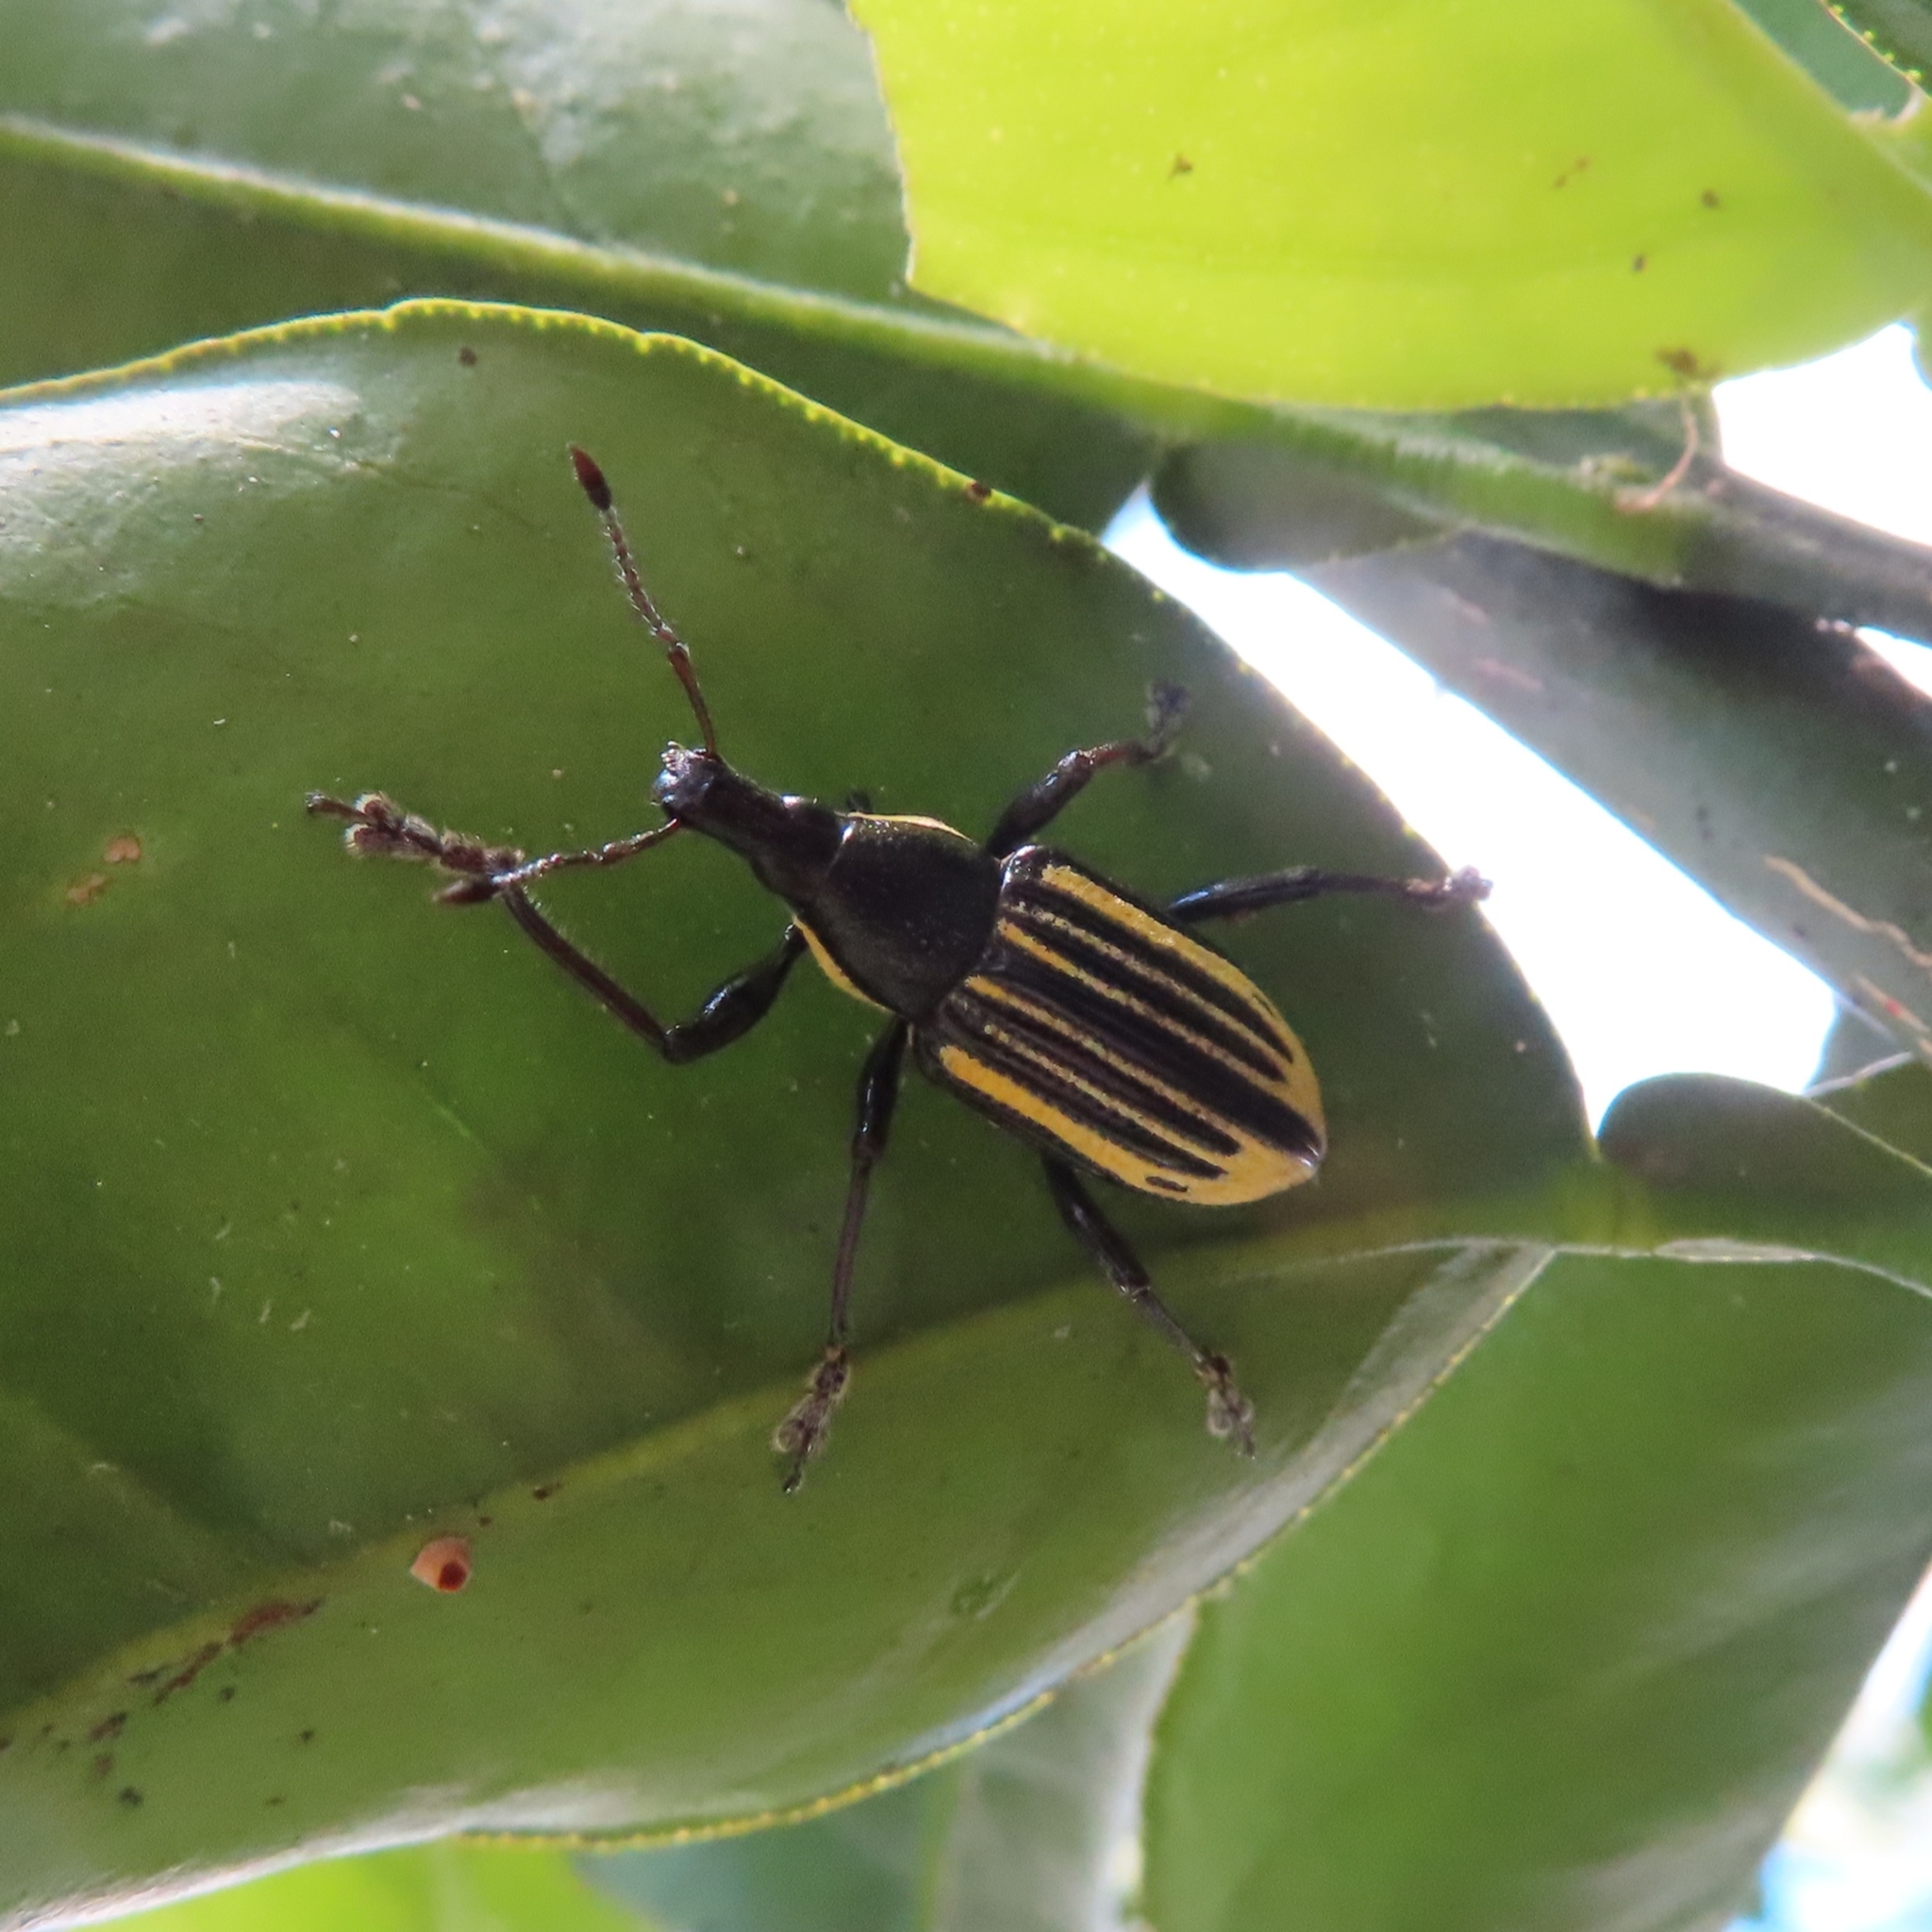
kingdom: Animalia
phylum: Arthropoda
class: Insecta
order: Coleoptera
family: Curculionidae
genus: Diaprepes
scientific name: Diaprepes abbreviatus
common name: Root weevil
